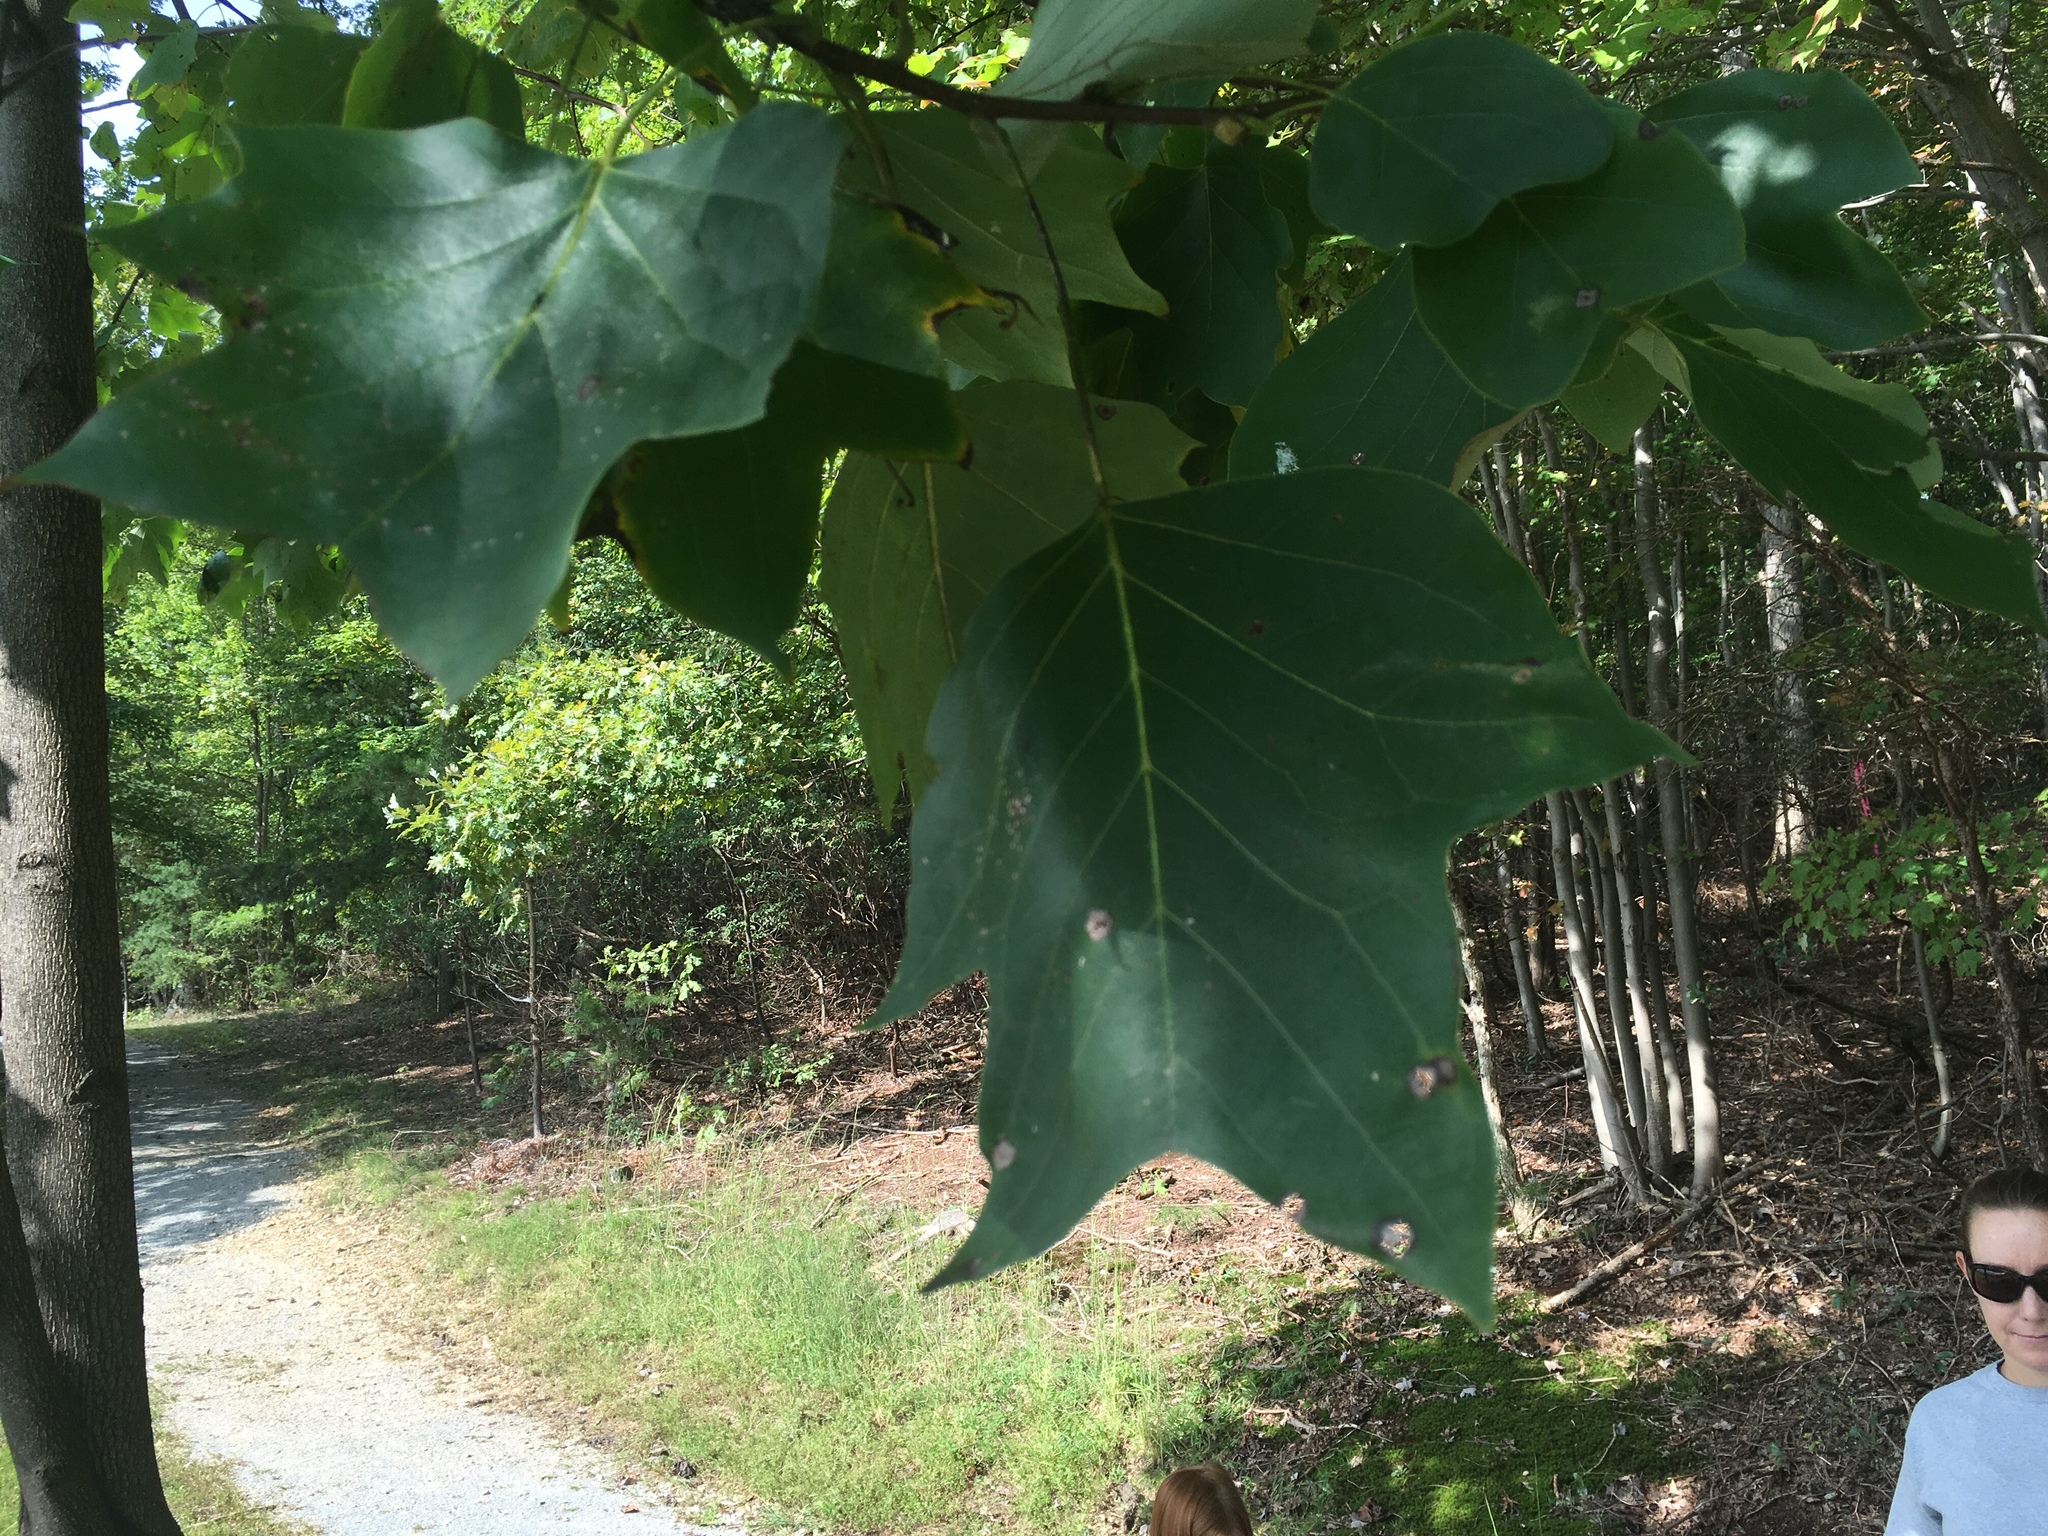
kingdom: Plantae
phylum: Tracheophyta
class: Magnoliopsida
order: Magnoliales
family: Magnoliaceae
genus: Liriodendron
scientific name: Liriodendron tulipifera
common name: Tulip tree
